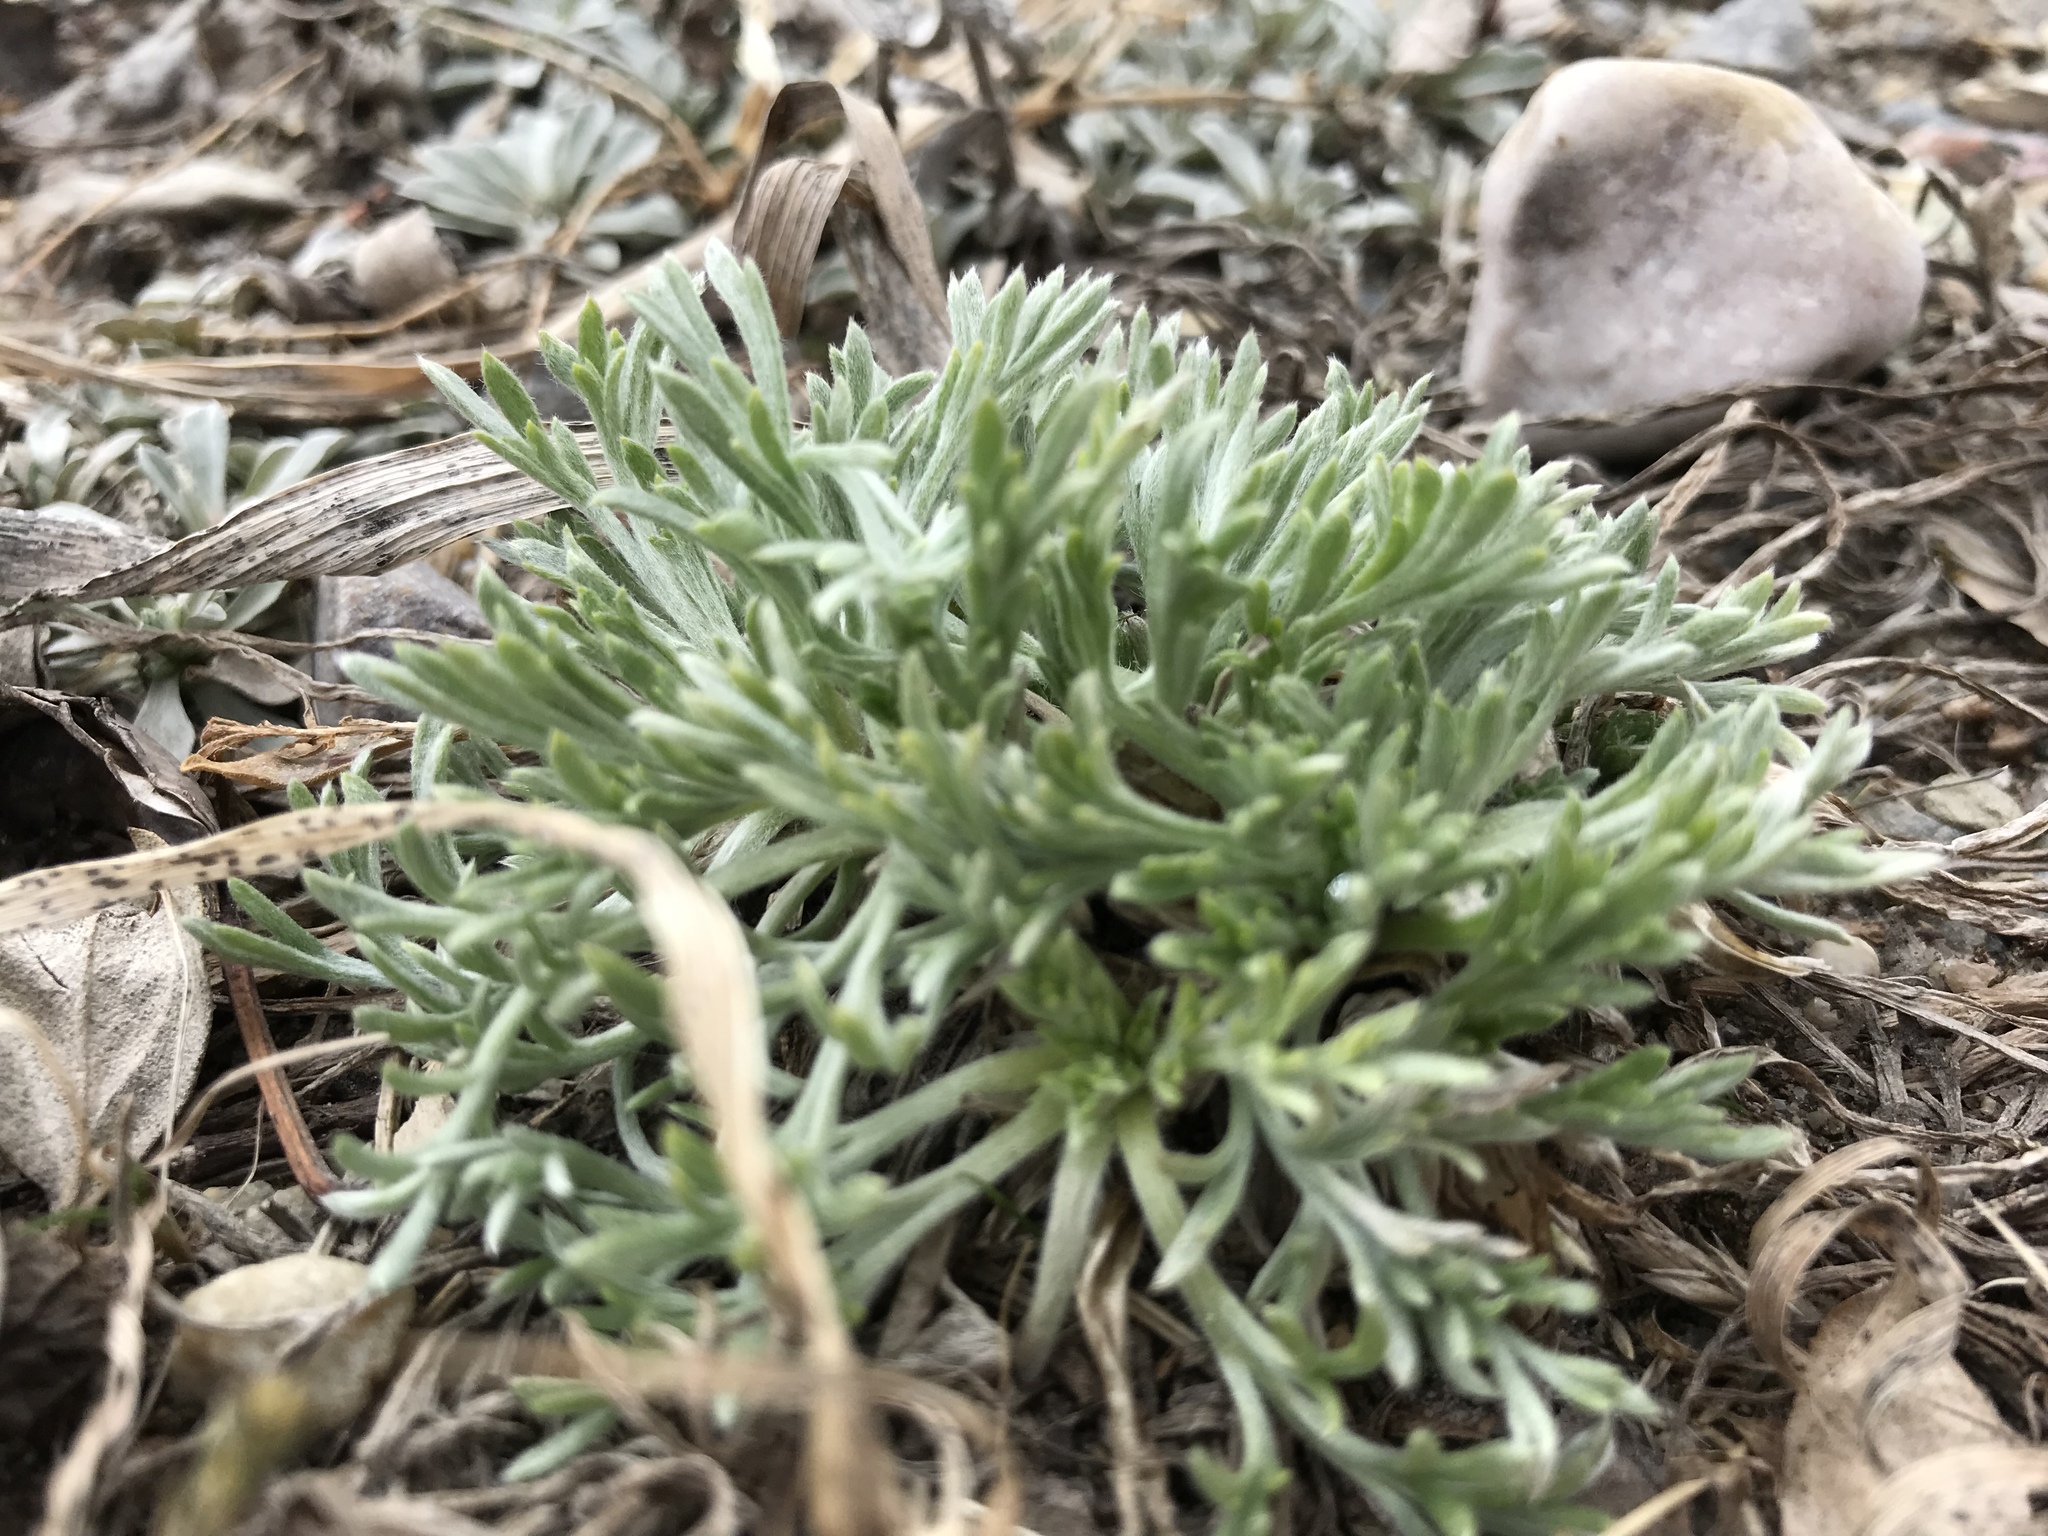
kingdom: Plantae
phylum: Tracheophyta
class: Magnoliopsida
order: Asterales
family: Asteraceae
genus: Artemisia
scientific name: Artemisia campestris
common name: Field wormwood
